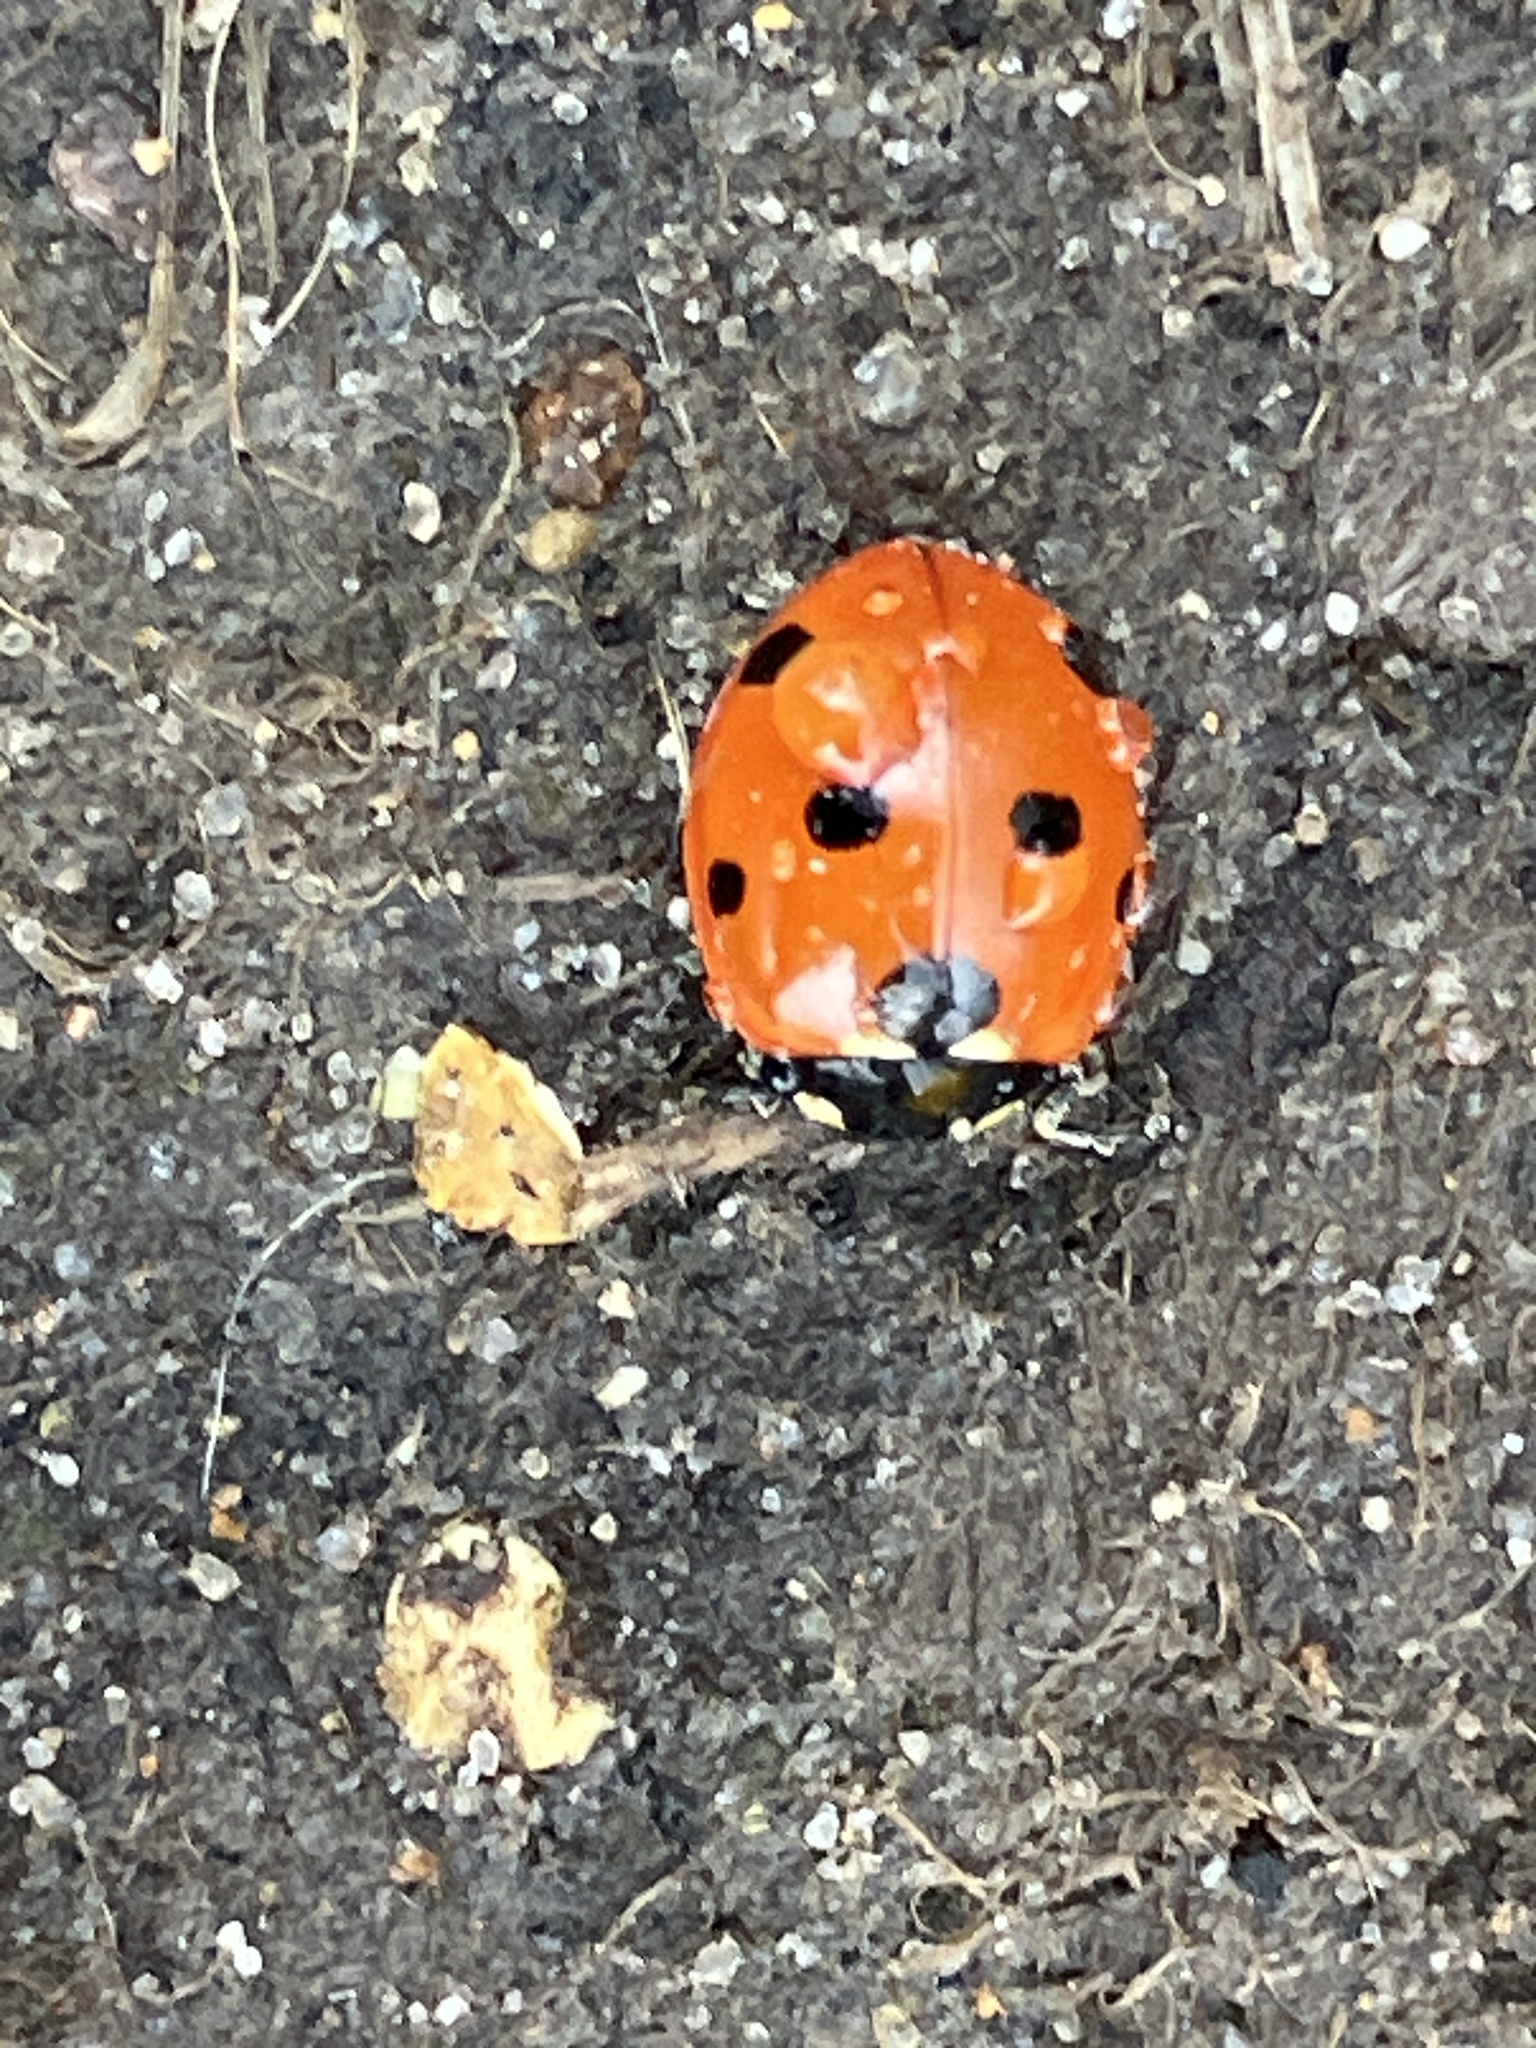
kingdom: Animalia
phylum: Arthropoda
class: Insecta
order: Coleoptera
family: Coccinellidae
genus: Coccinella
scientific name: Coccinella septempunctata
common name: Sevenspotted lady beetle
